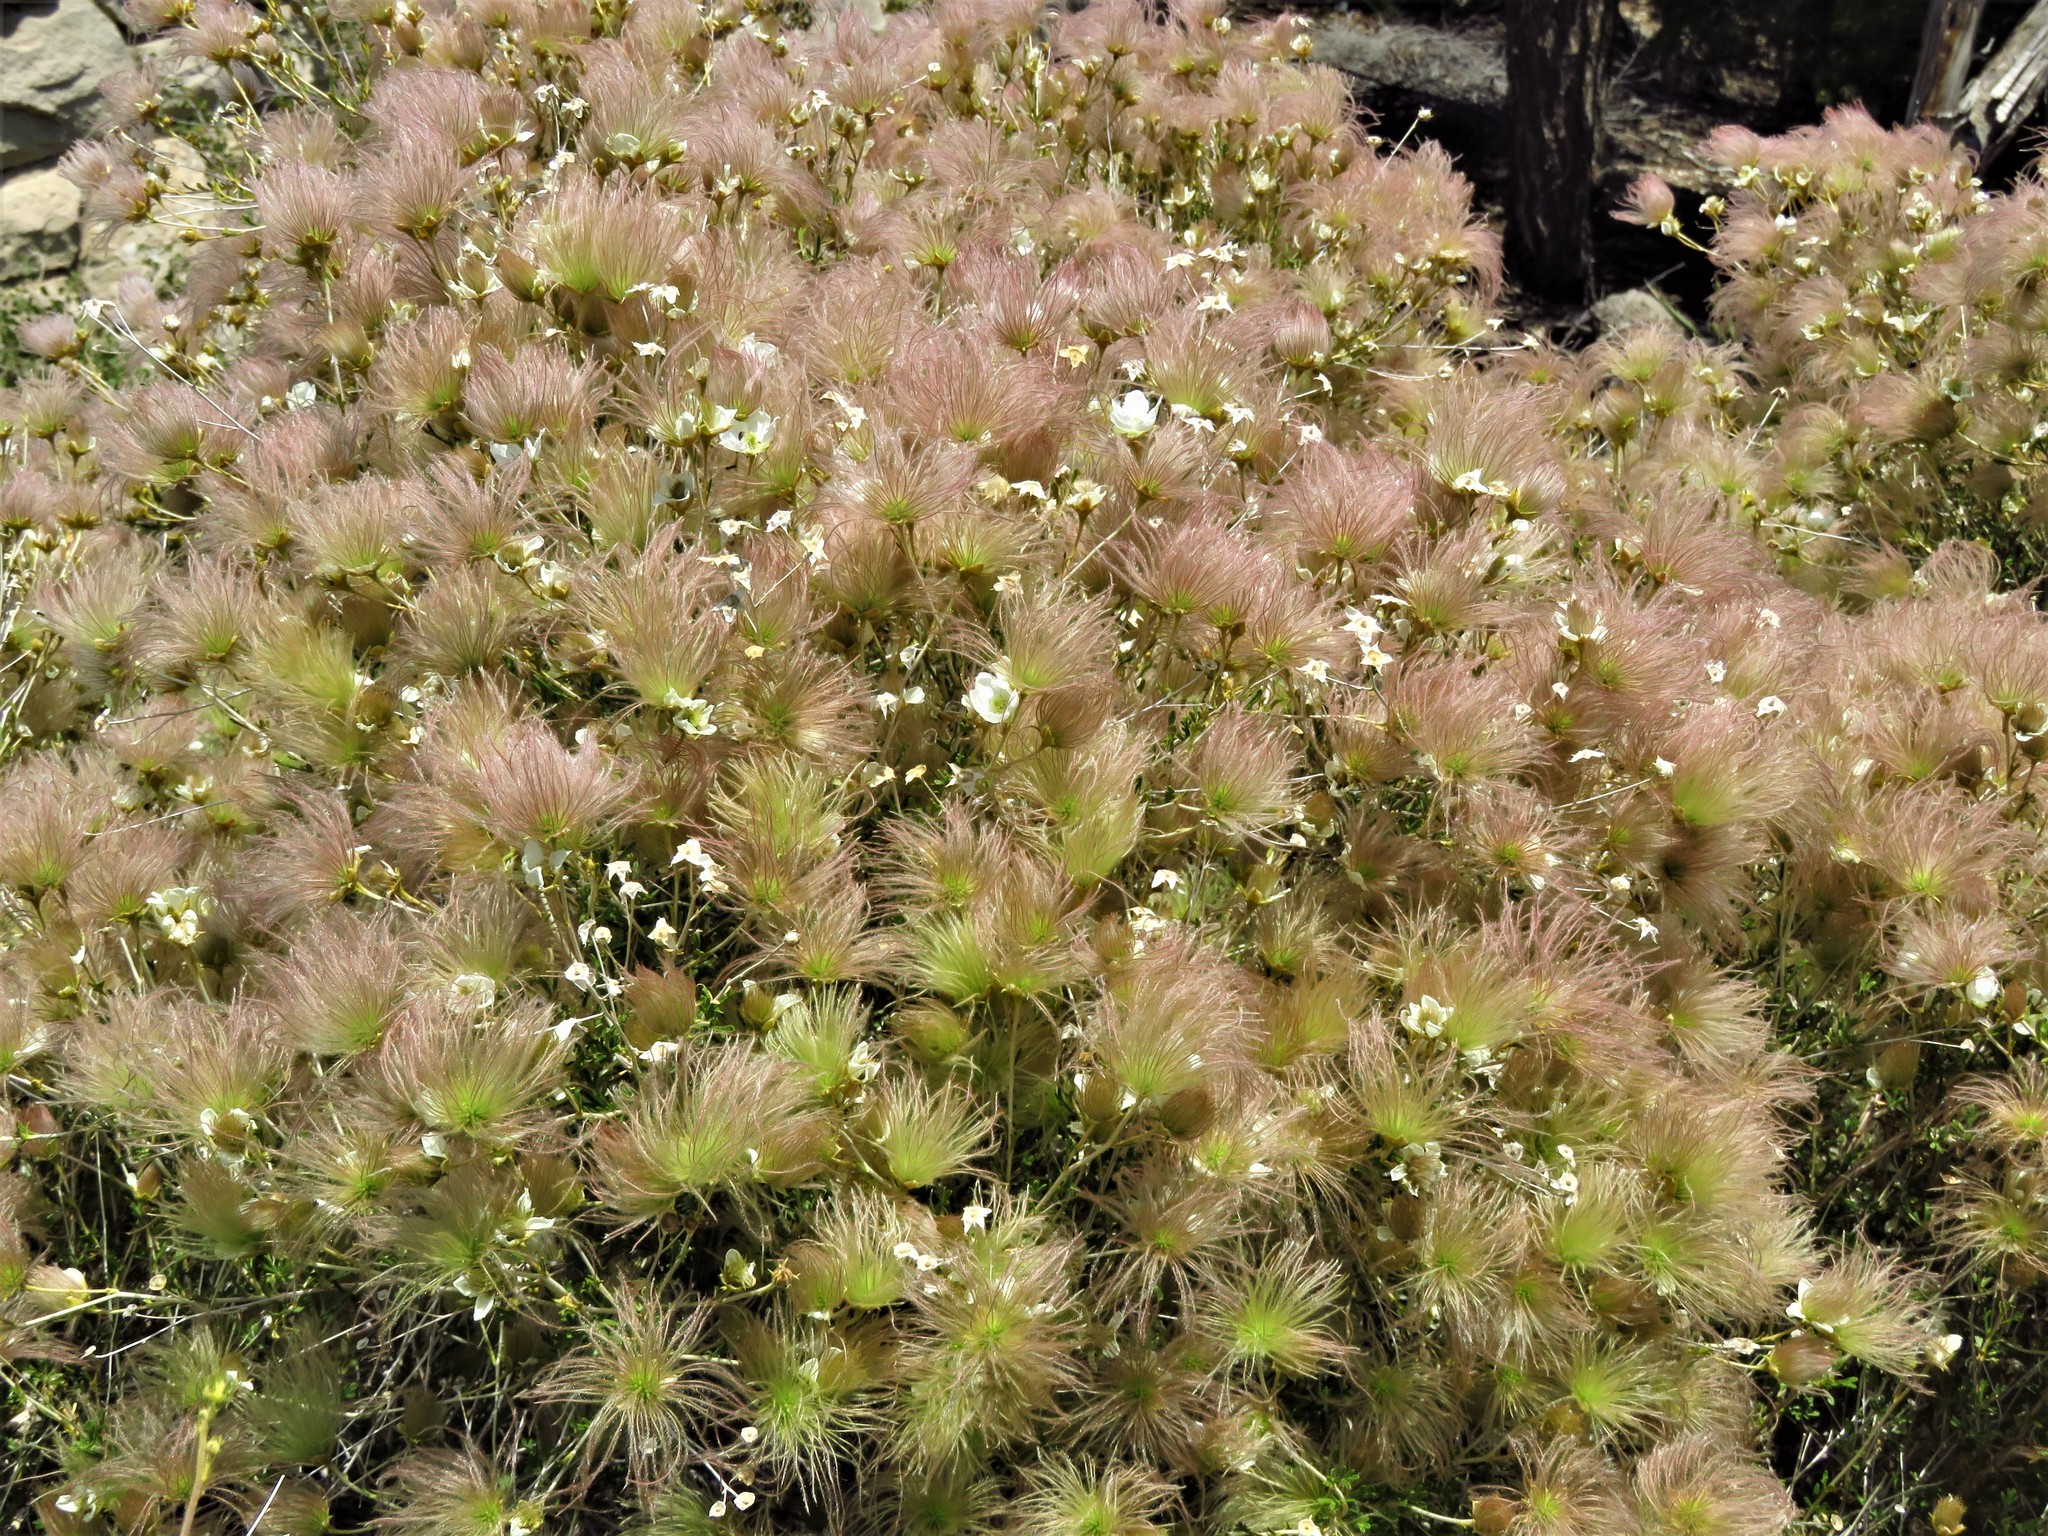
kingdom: Plantae
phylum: Tracheophyta
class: Magnoliopsida
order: Rosales
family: Rosaceae
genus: Fallugia
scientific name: Fallugia paradoxa
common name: Apache-plume
